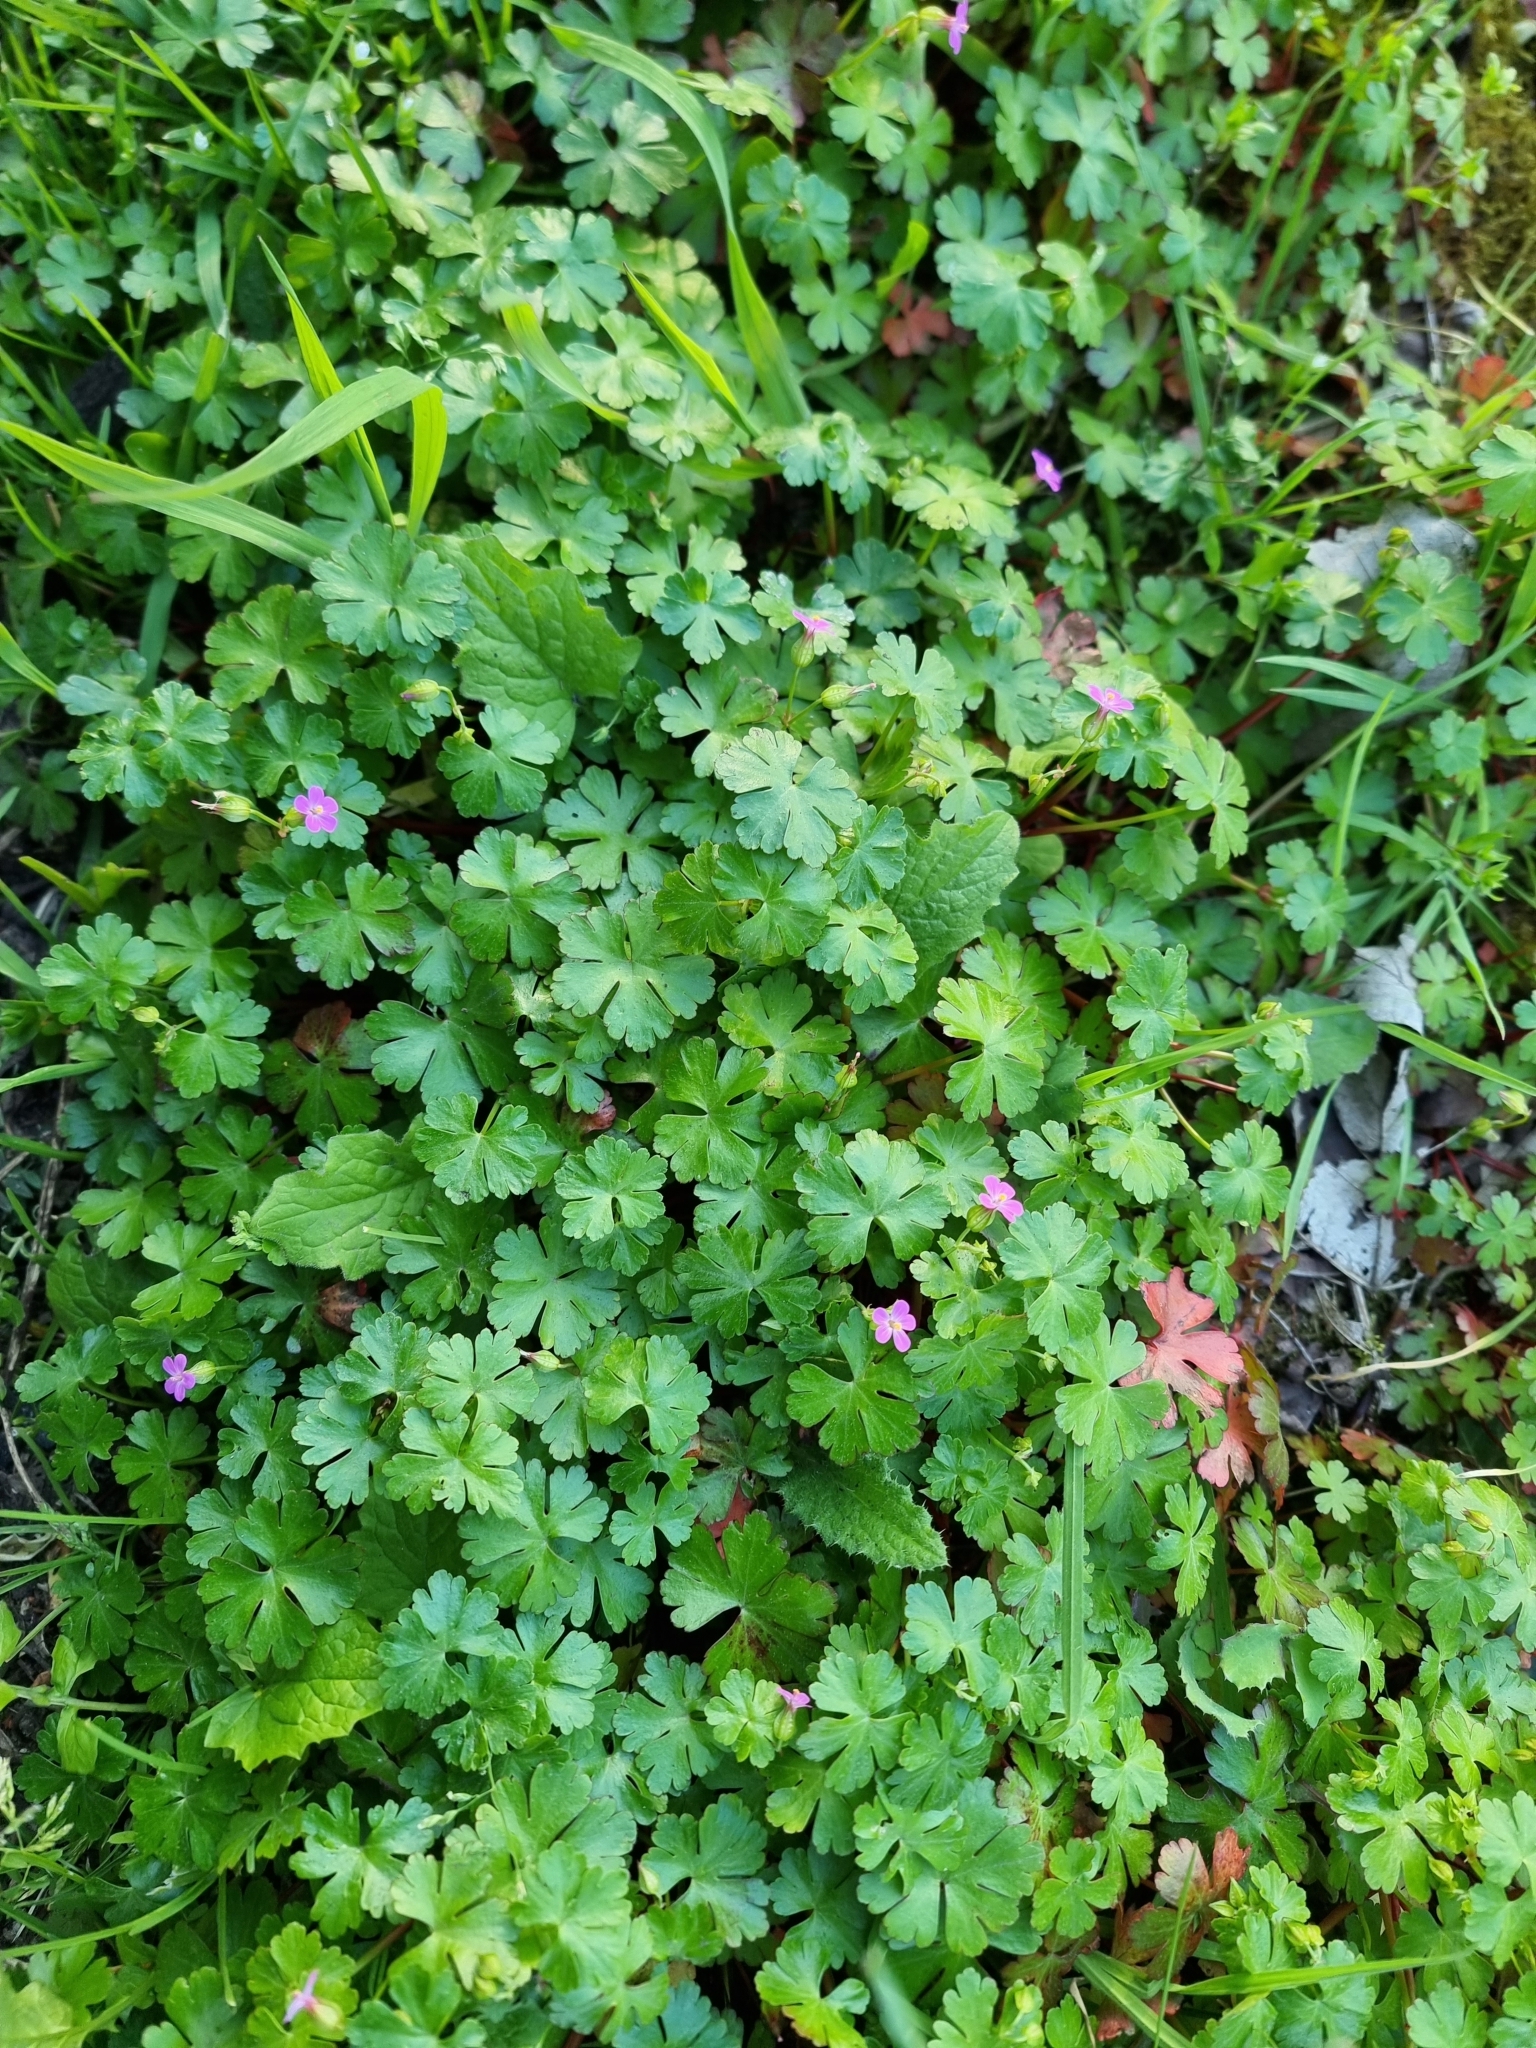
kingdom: Plantae
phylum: Tracheophyta
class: Magnoliopsida
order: Geraniales
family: Geraniaceae
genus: Geranium
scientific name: Geranium lucidum
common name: Shining crane's-bill
